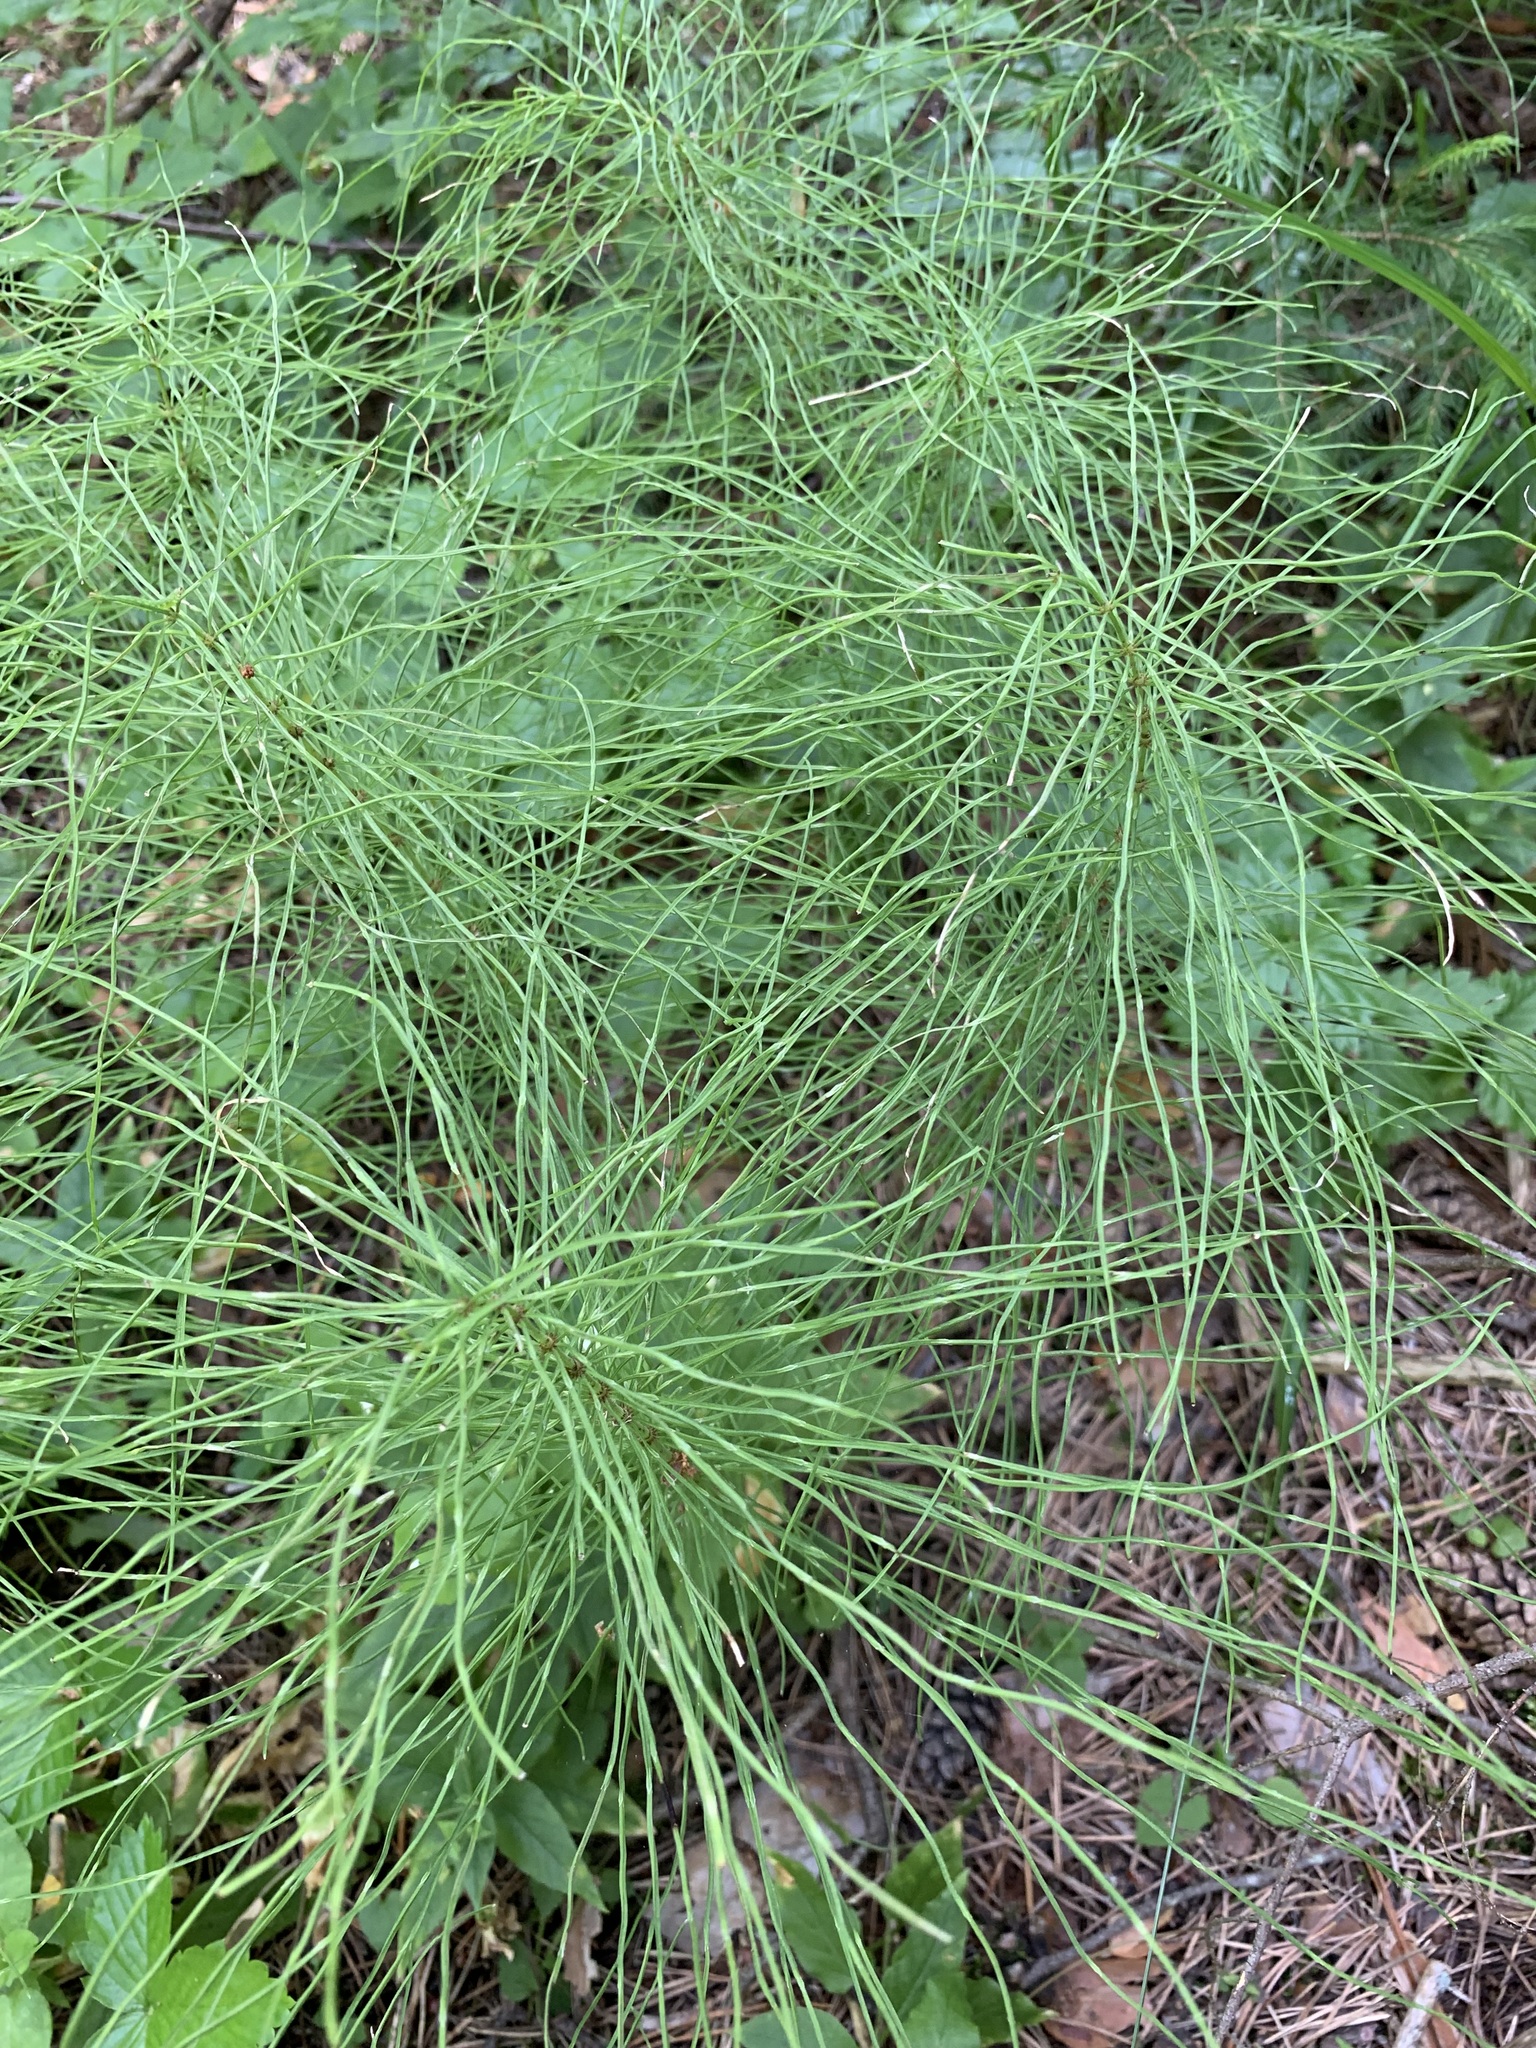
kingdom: Plantae
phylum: Tracheophyta
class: Polypodiopsida
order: Equisetales
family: Equisetaceae
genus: Equisetum
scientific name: Equisetum pratense
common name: Meadow horsetail
